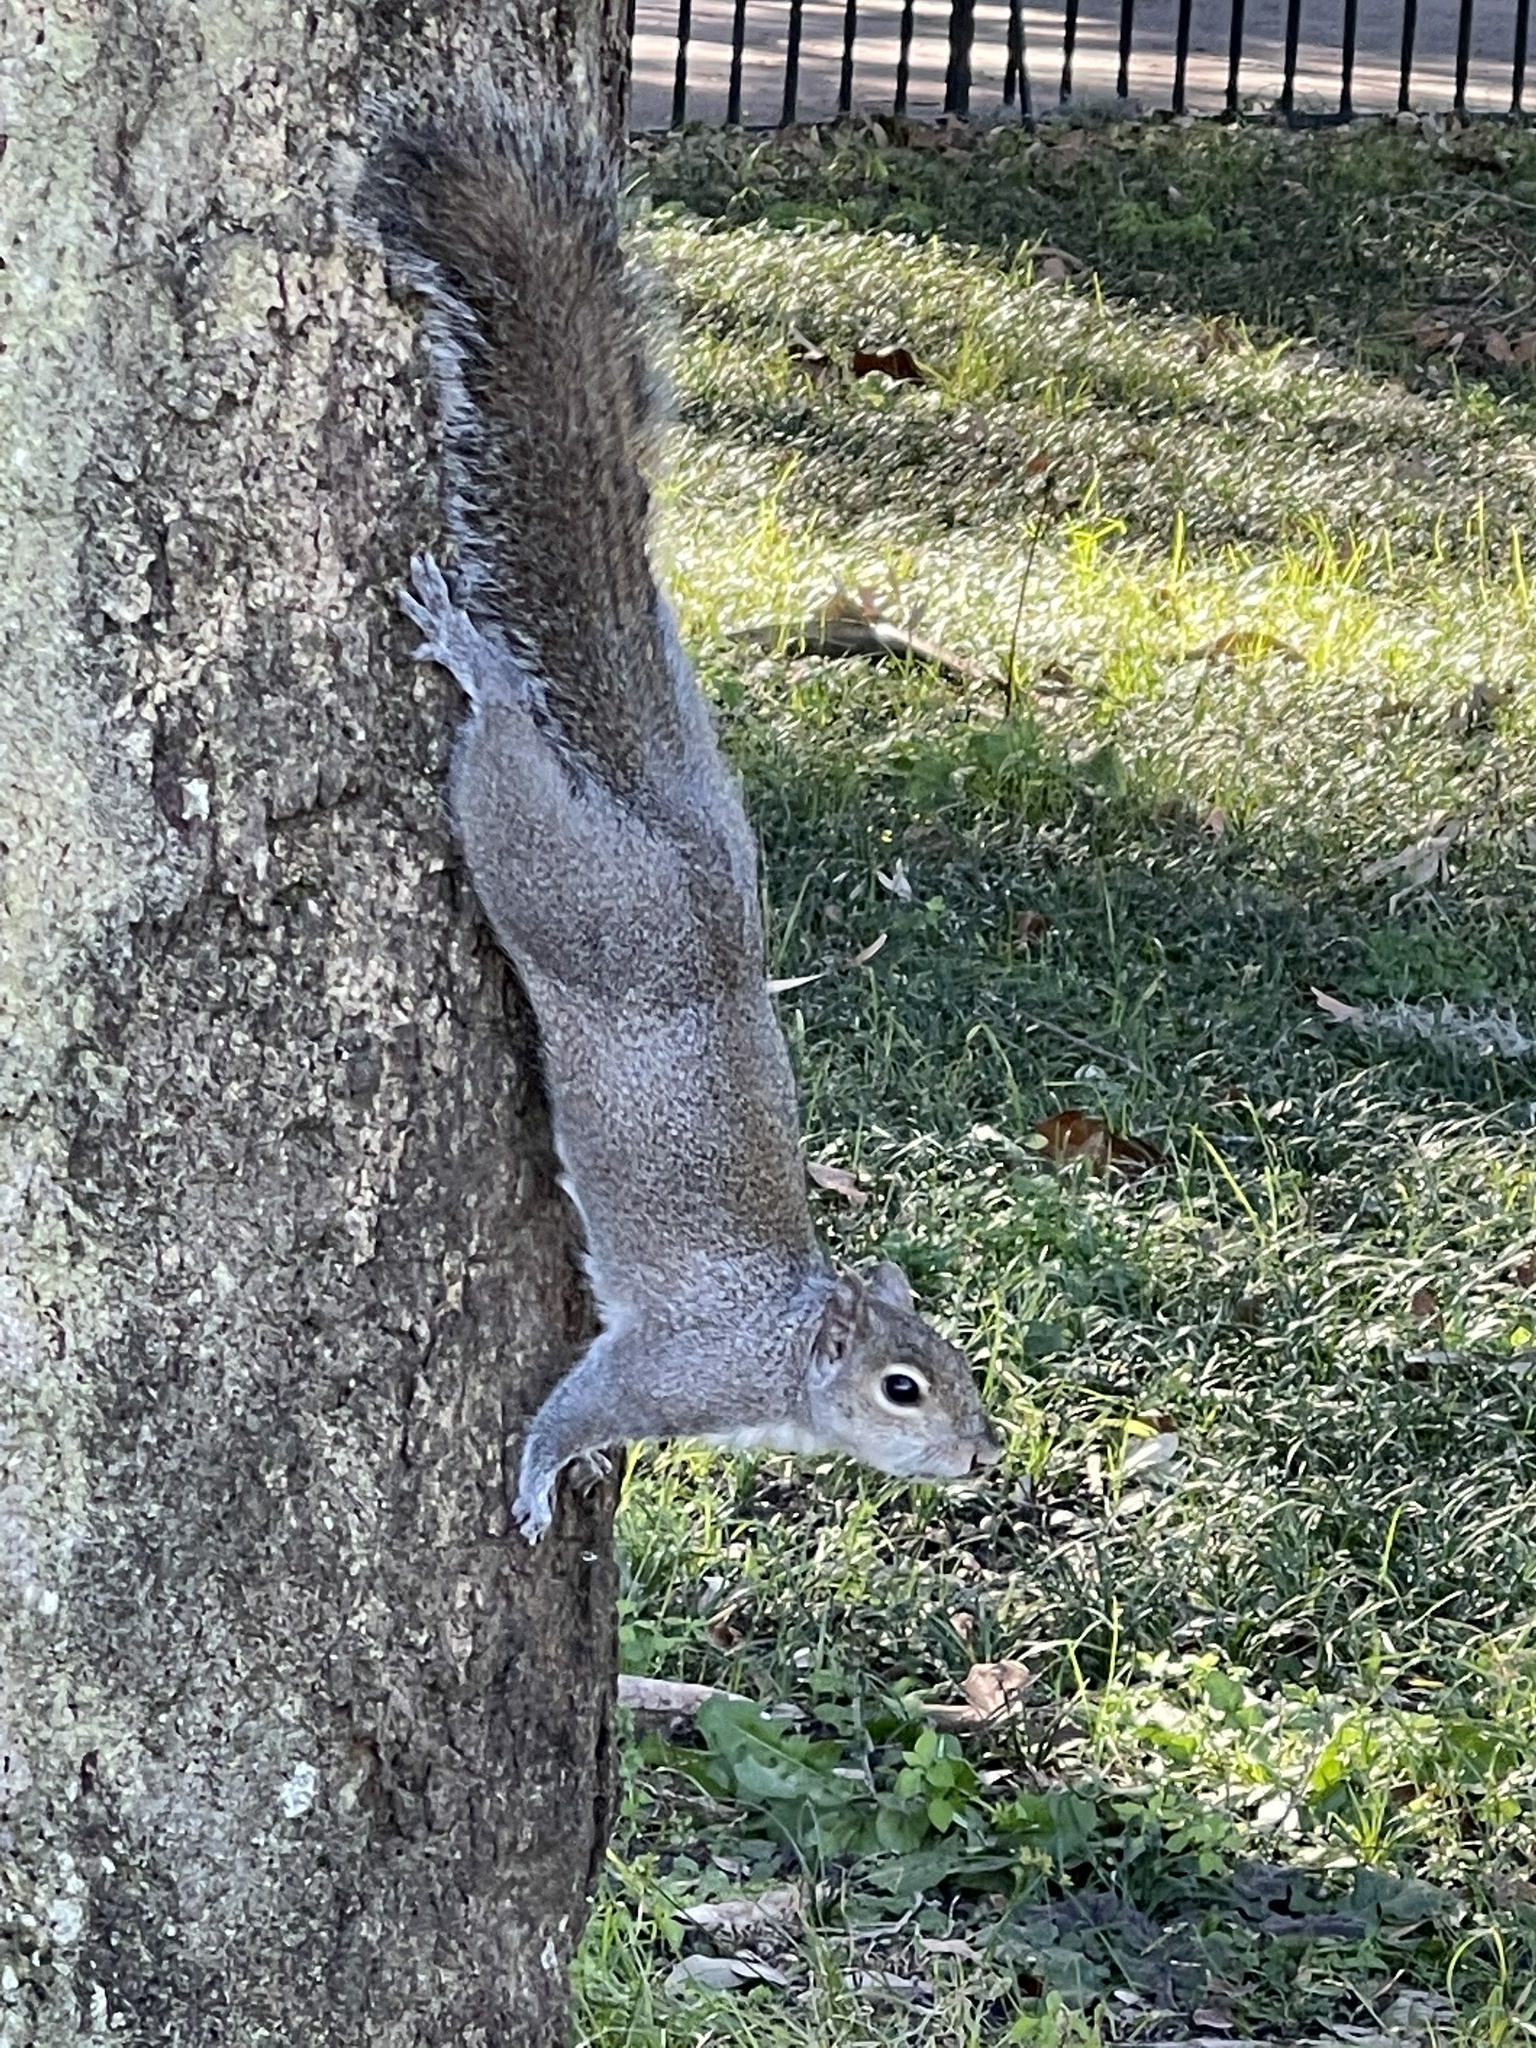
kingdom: Animalia
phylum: Chordata
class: Mammalia
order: Rodentia
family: Sciuridae
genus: Sciurus
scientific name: Sciurus carolinensis
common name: Eastern gray squirrel
